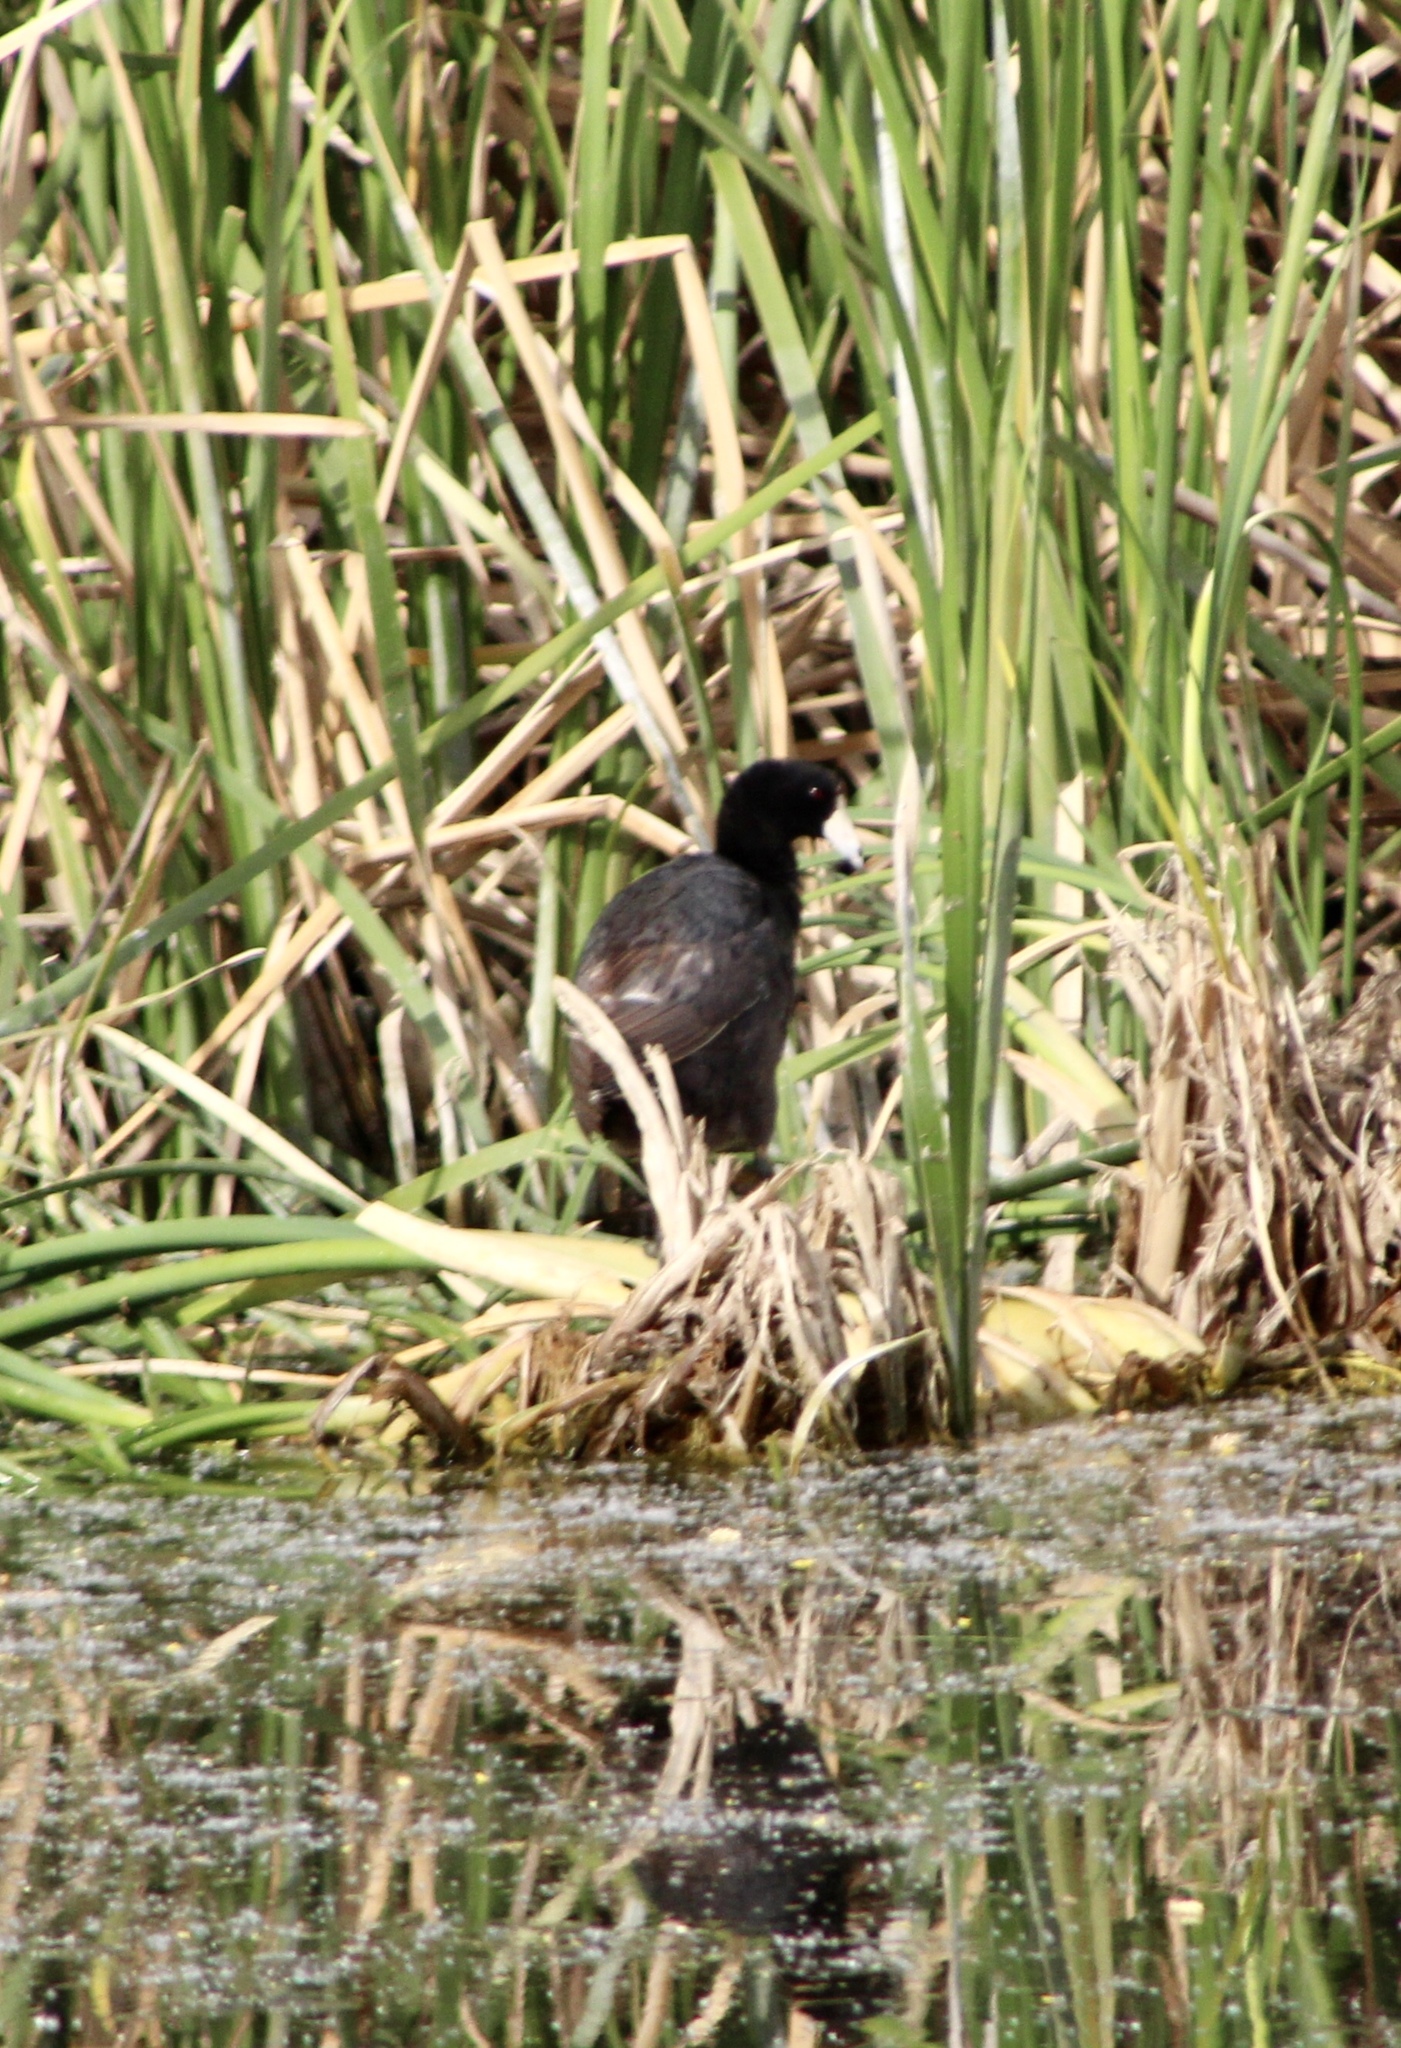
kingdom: Animalia
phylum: Chordata
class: Aves
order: Gruiformes
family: Rallidae
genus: Fulica
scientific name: Fulica americana
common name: American coot
